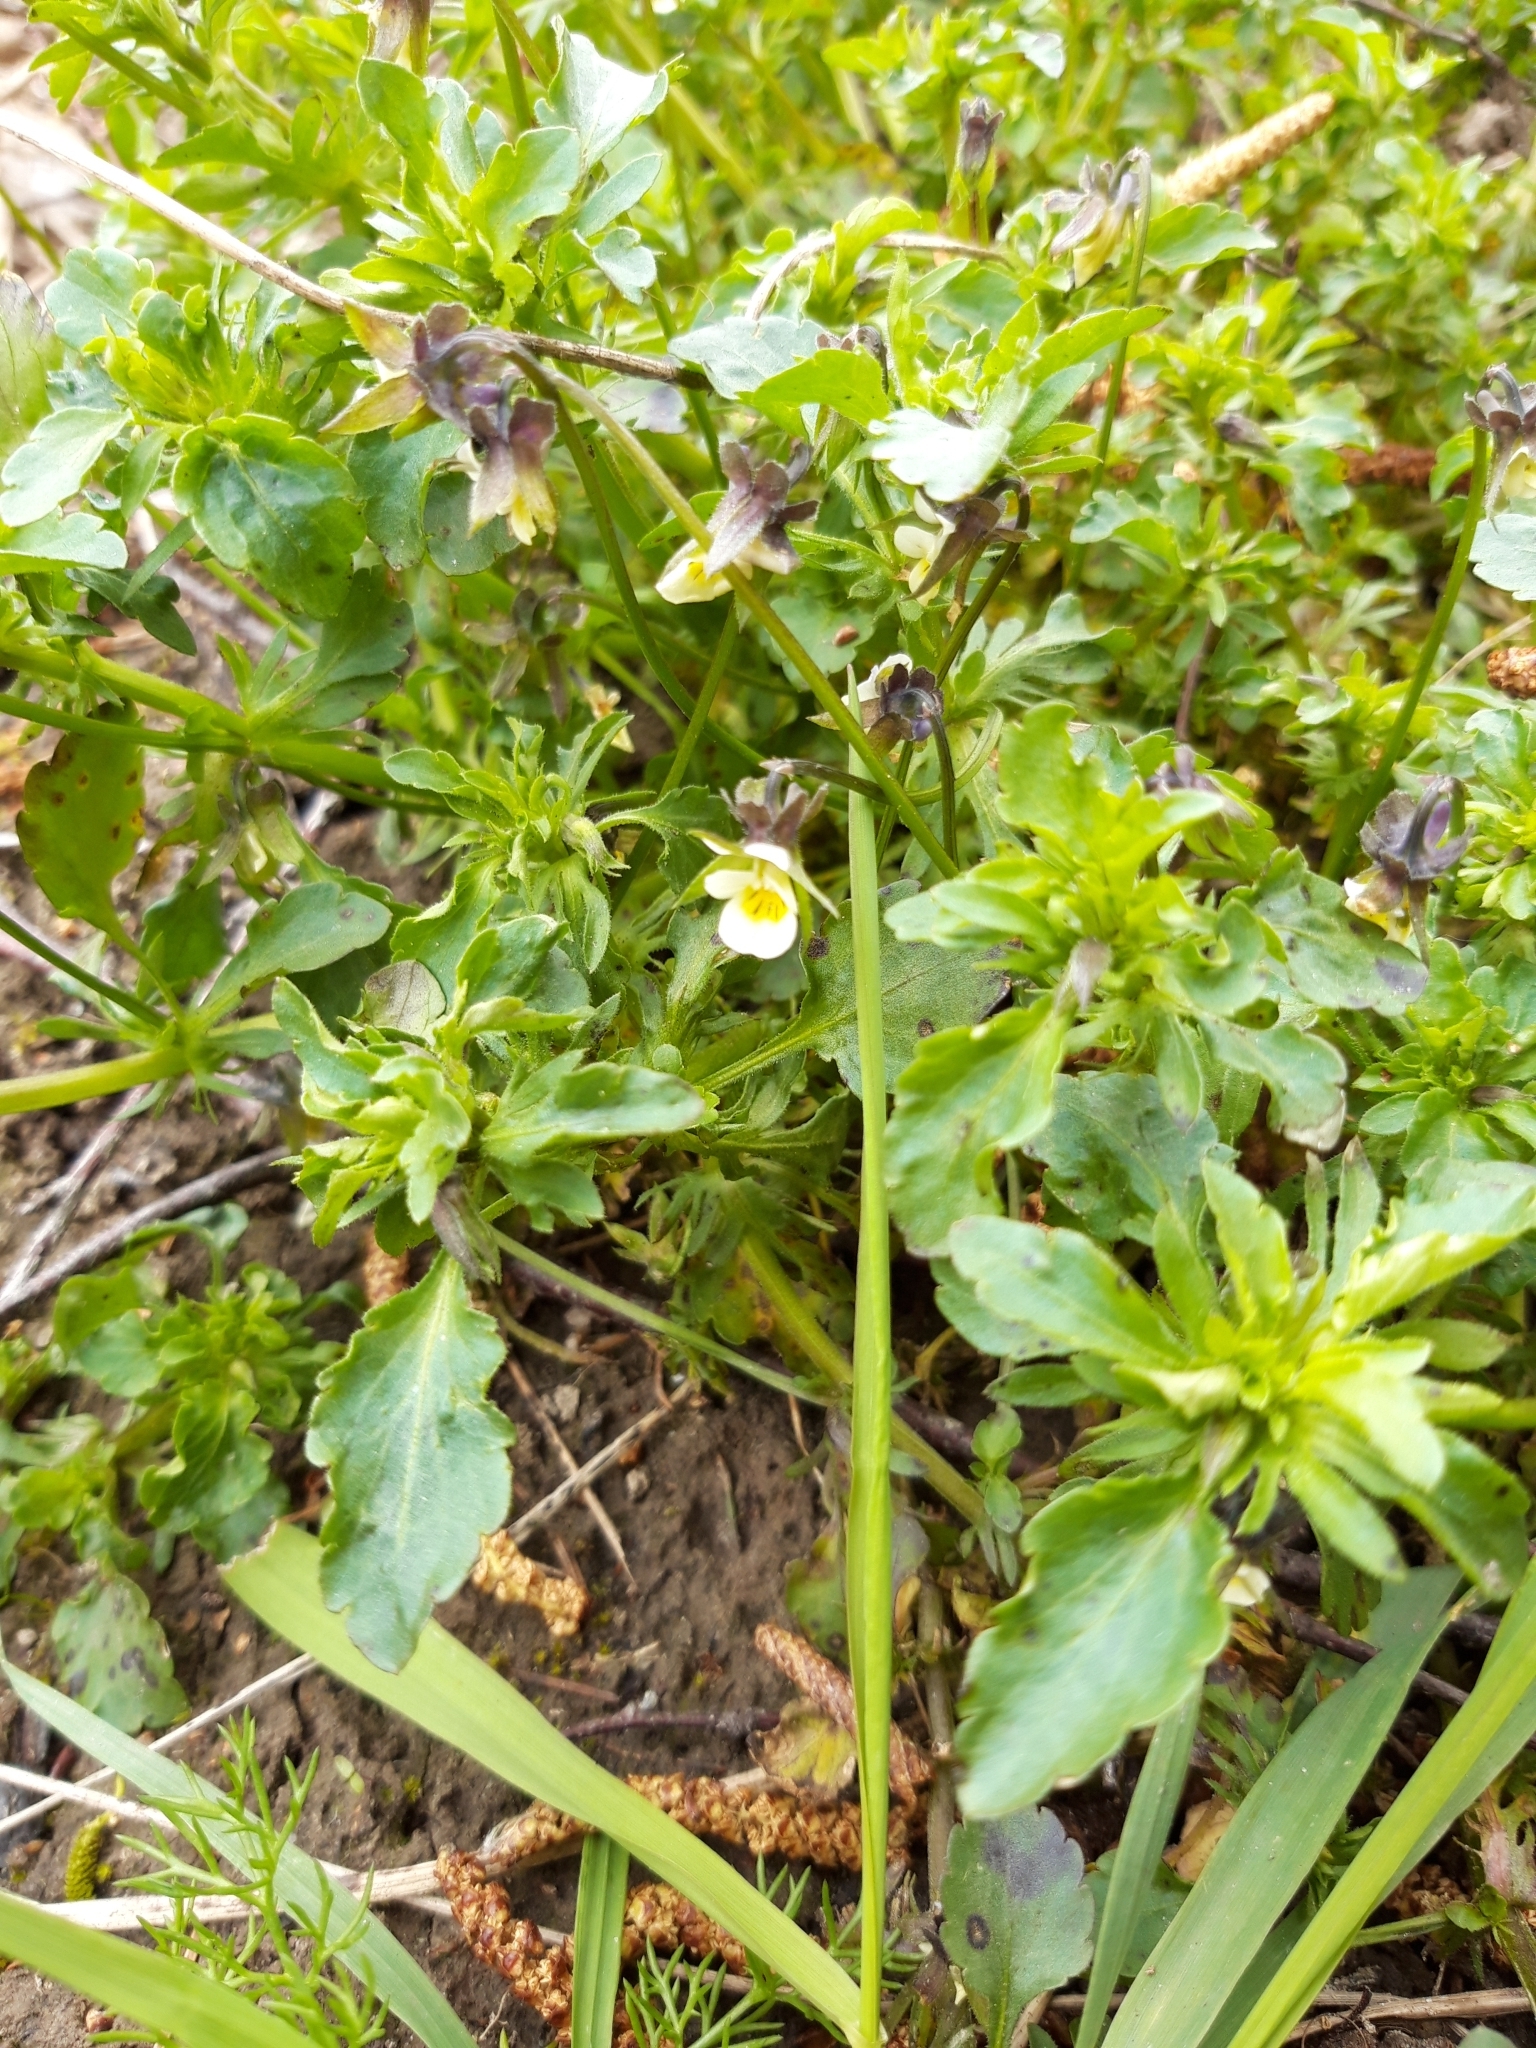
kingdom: Plantae
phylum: Tracheophyta
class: Magnoliopsida
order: Malpighiales
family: Violaceae
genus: Viola
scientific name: Viola arvensis
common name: Field pansy
